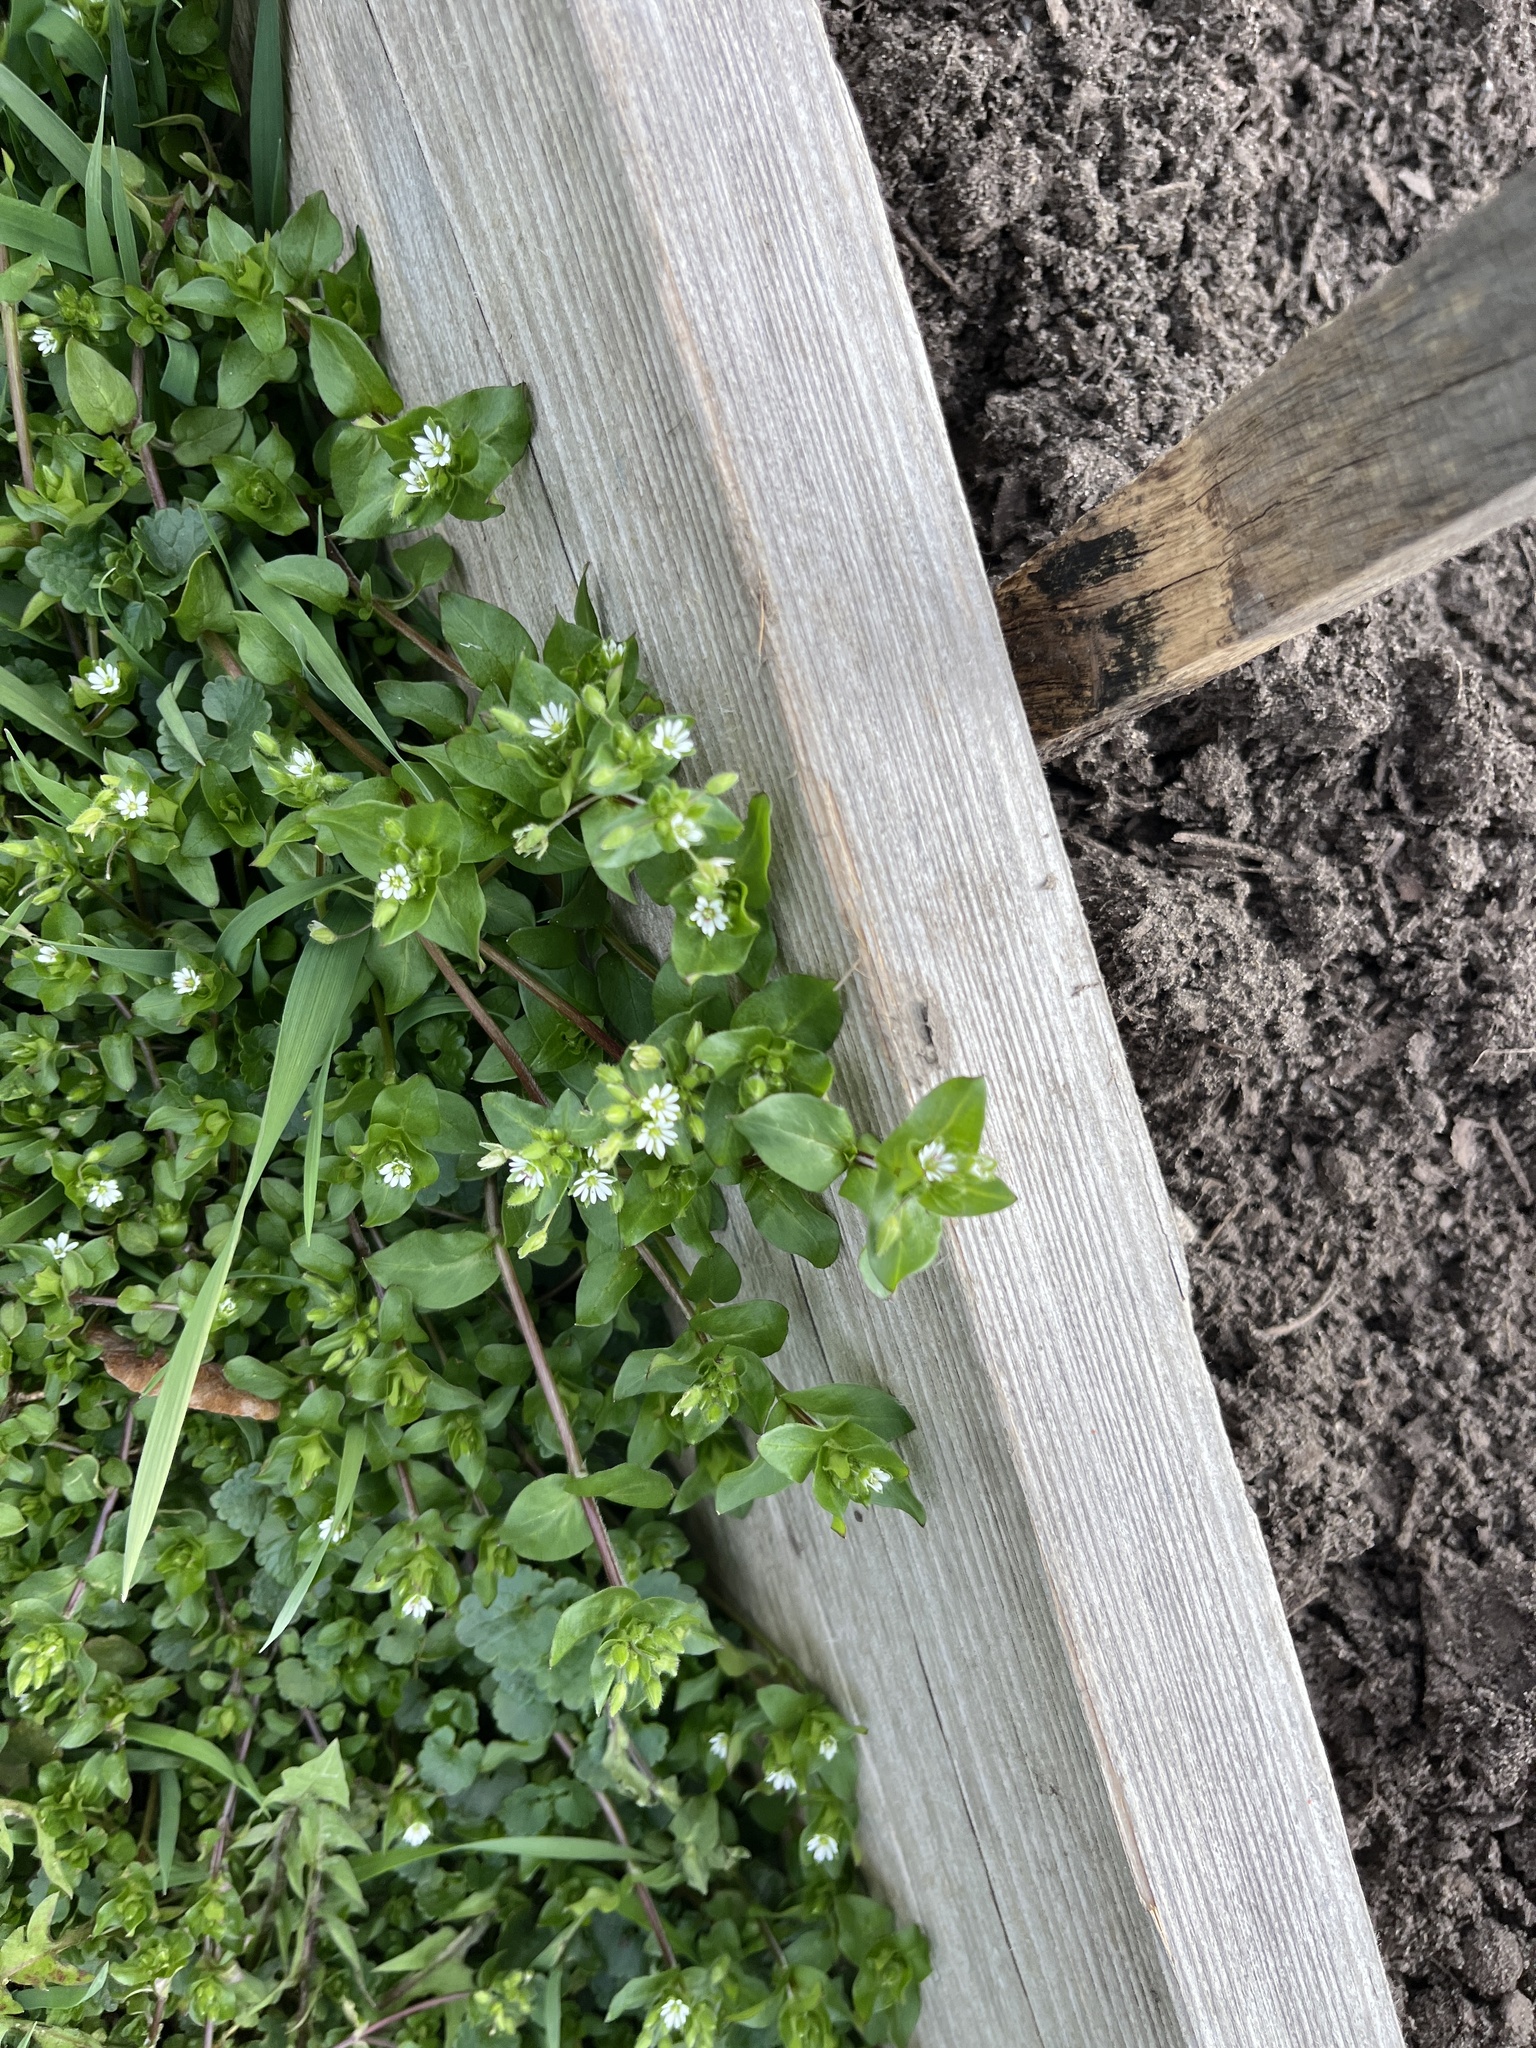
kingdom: Plantae
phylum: Tracheophyta
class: Magnoliopsida
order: Caryophyllales
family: Caryophyllaceae
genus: Stellaria
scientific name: Stellaria media
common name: Common chickweed
